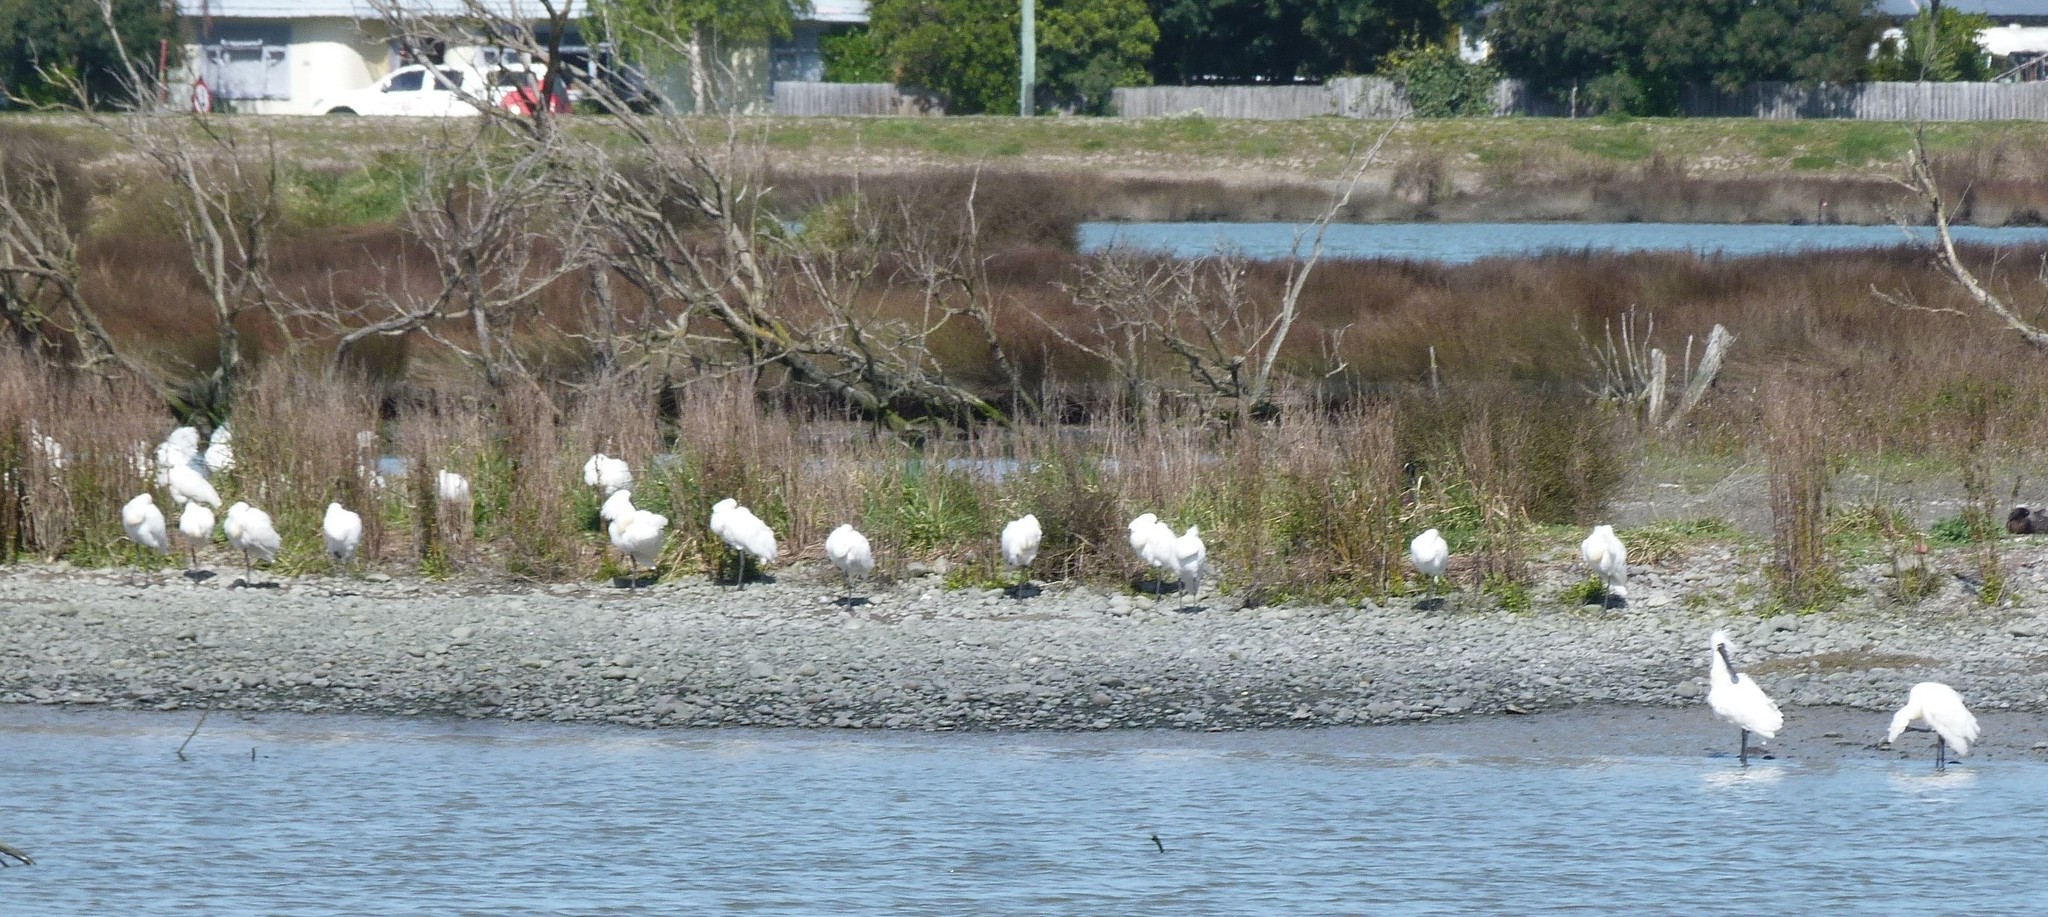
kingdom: Animalia
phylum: Chordata
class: Aves
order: Pelecaniformes
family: Threskiornithidae
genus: Platalea
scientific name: Platalea regia
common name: Royal spoonbill
